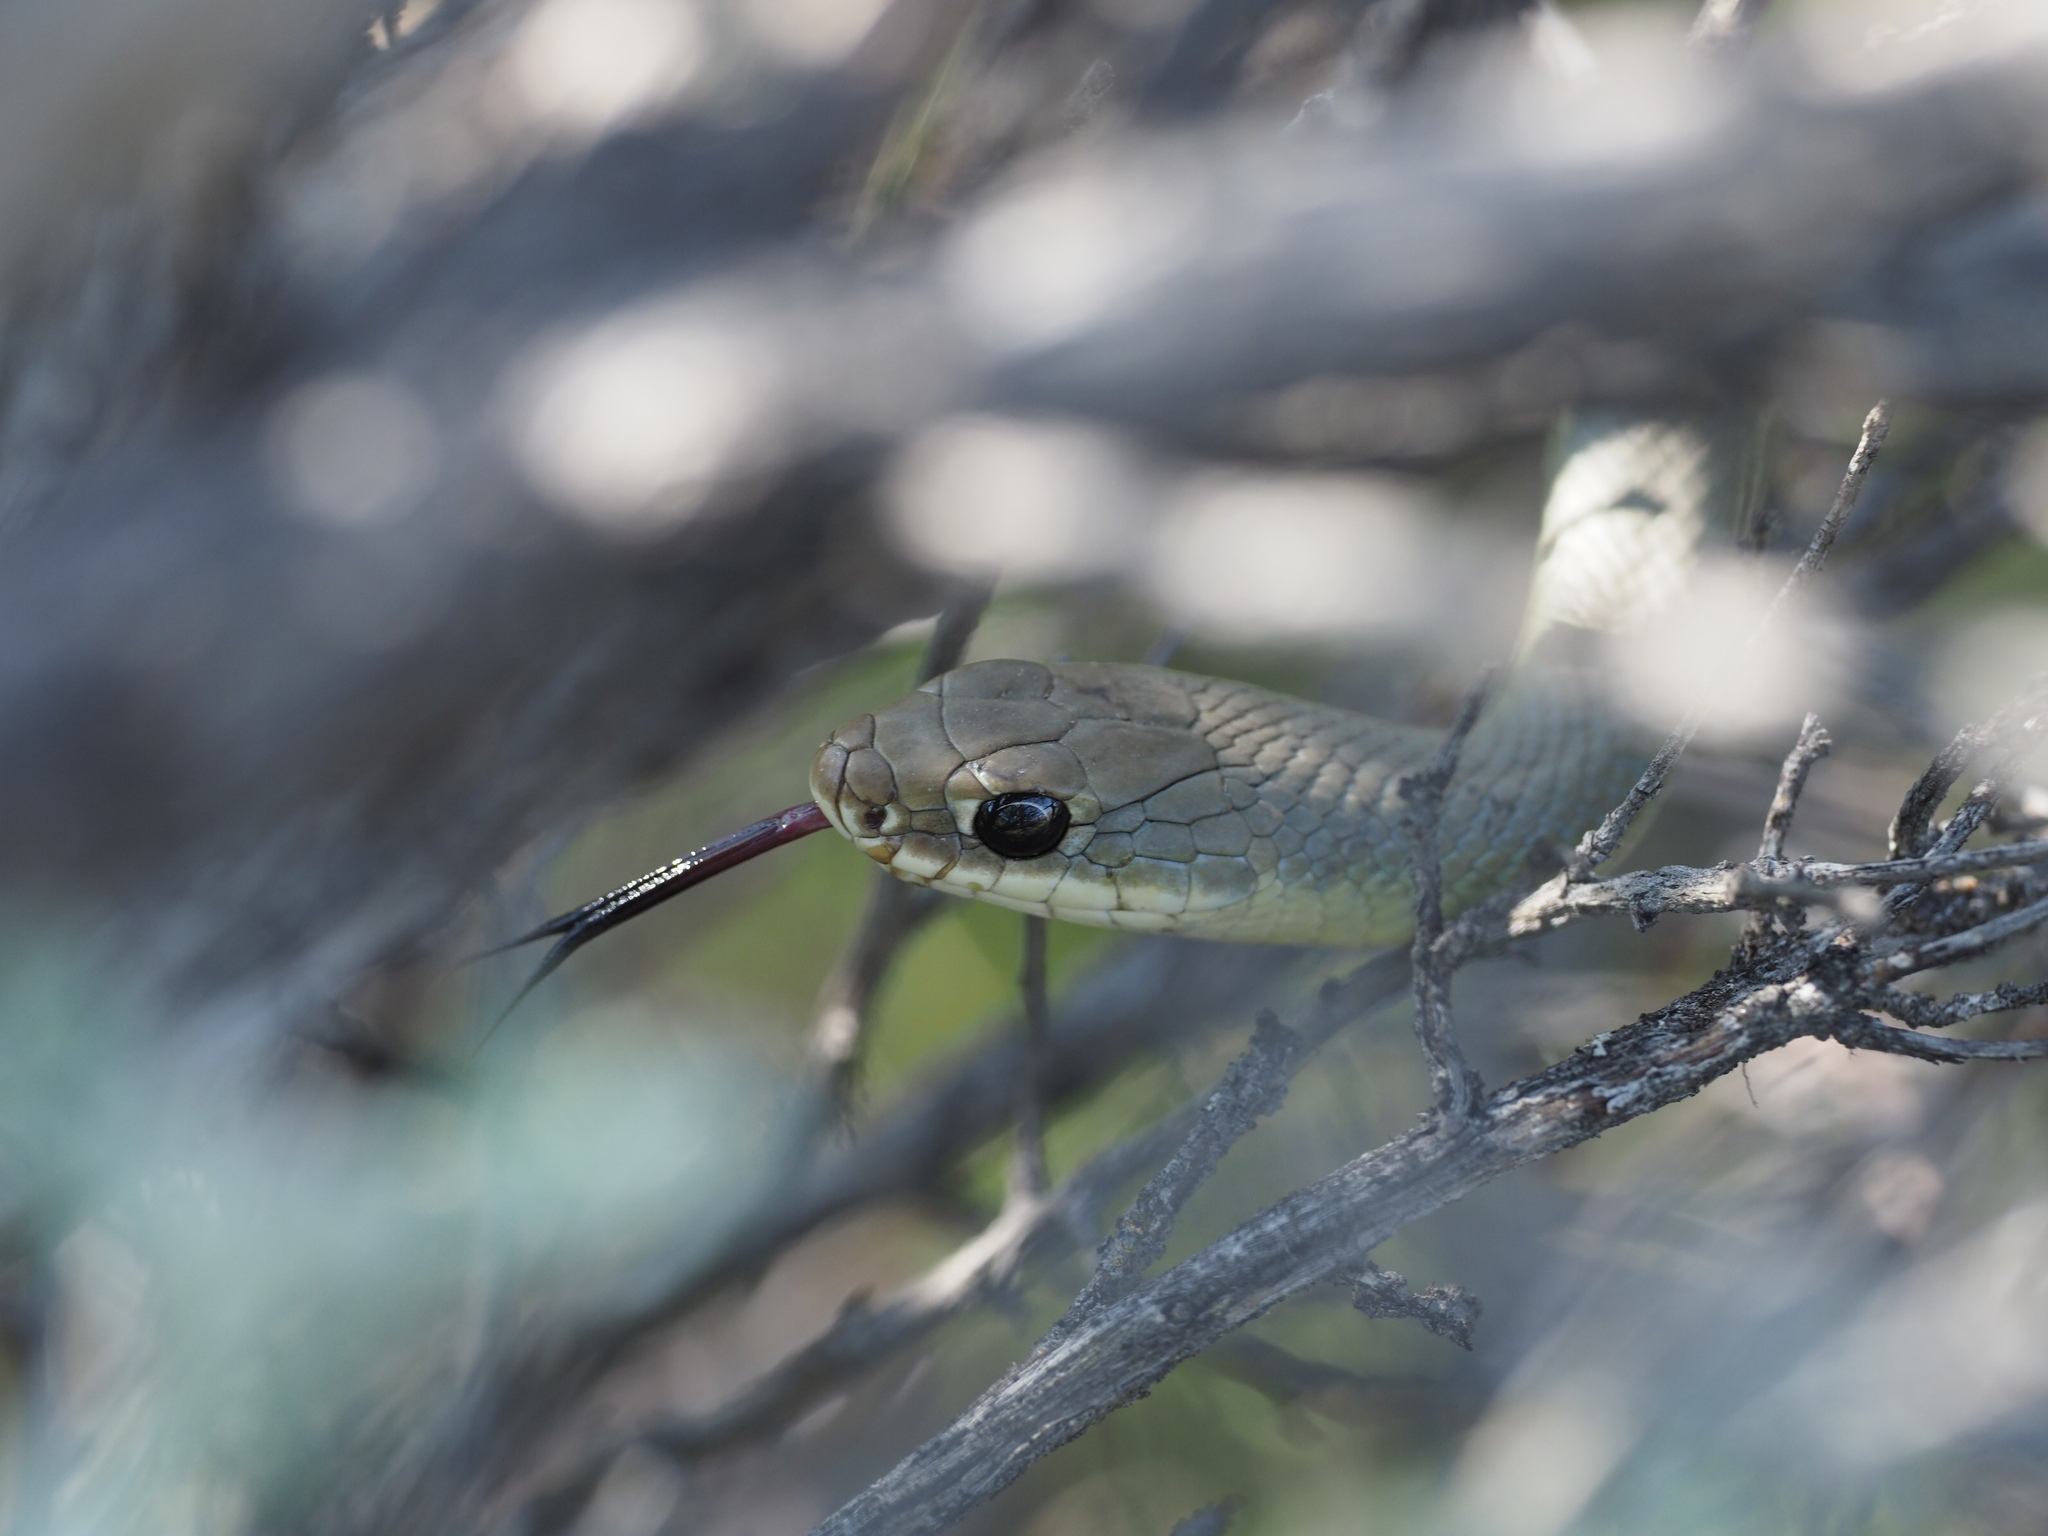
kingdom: Animalia
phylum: Chordata
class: Squamata
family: Colubridae
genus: Coluber
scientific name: Coluber constrictor
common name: Eastern racer
